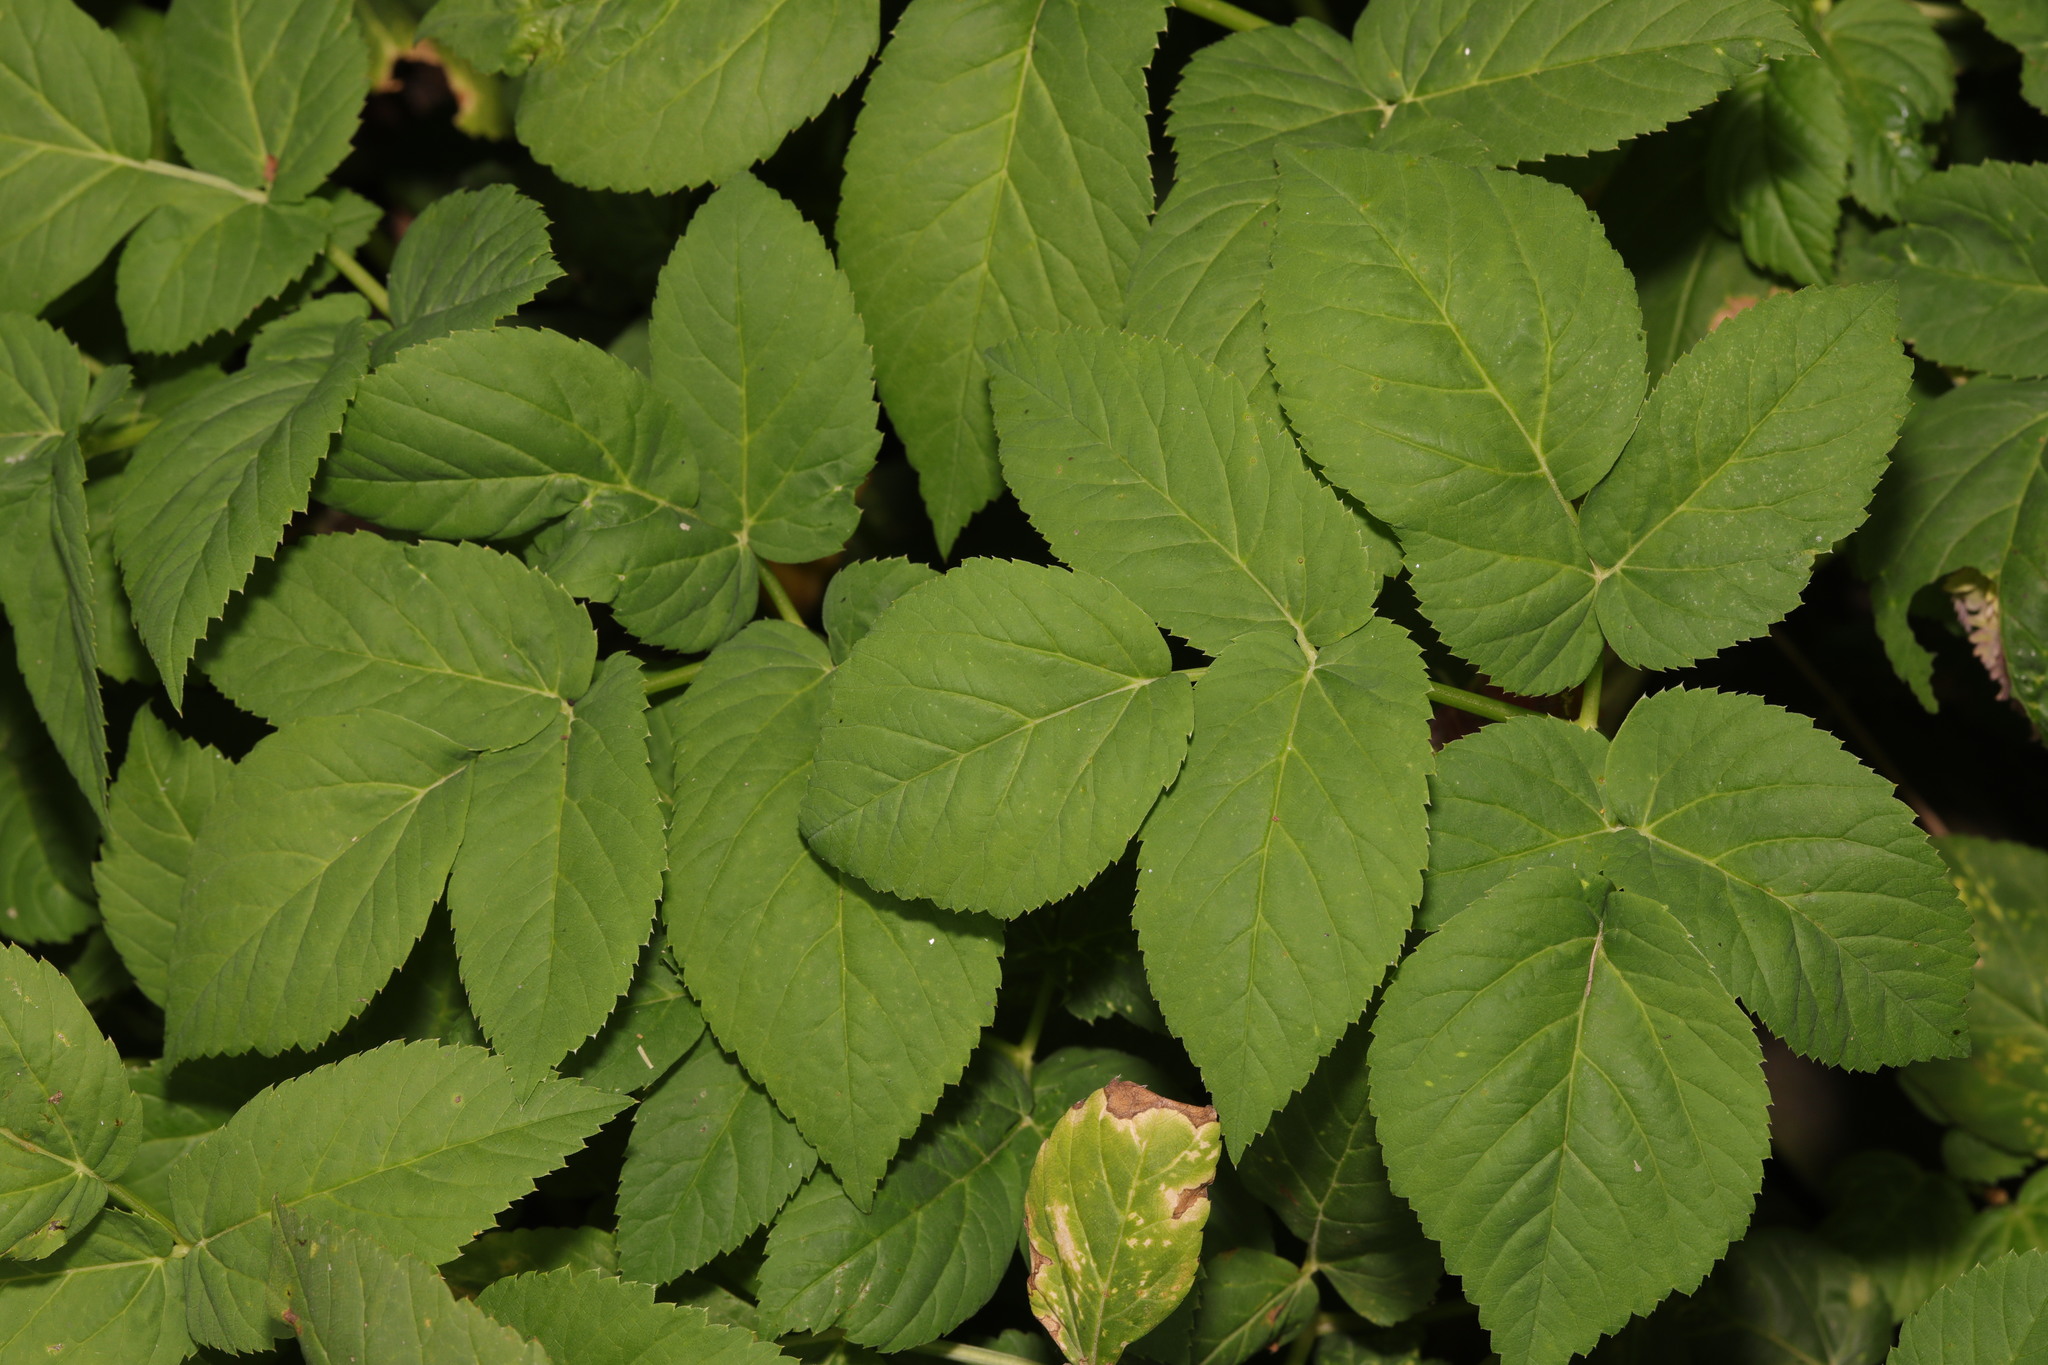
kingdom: Plantae
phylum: Tracheophyta
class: Magnoliopsida
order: Apiales
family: Apiaceae
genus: Aegopodium
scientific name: Aegopodium podagraria
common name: Ground-elder
